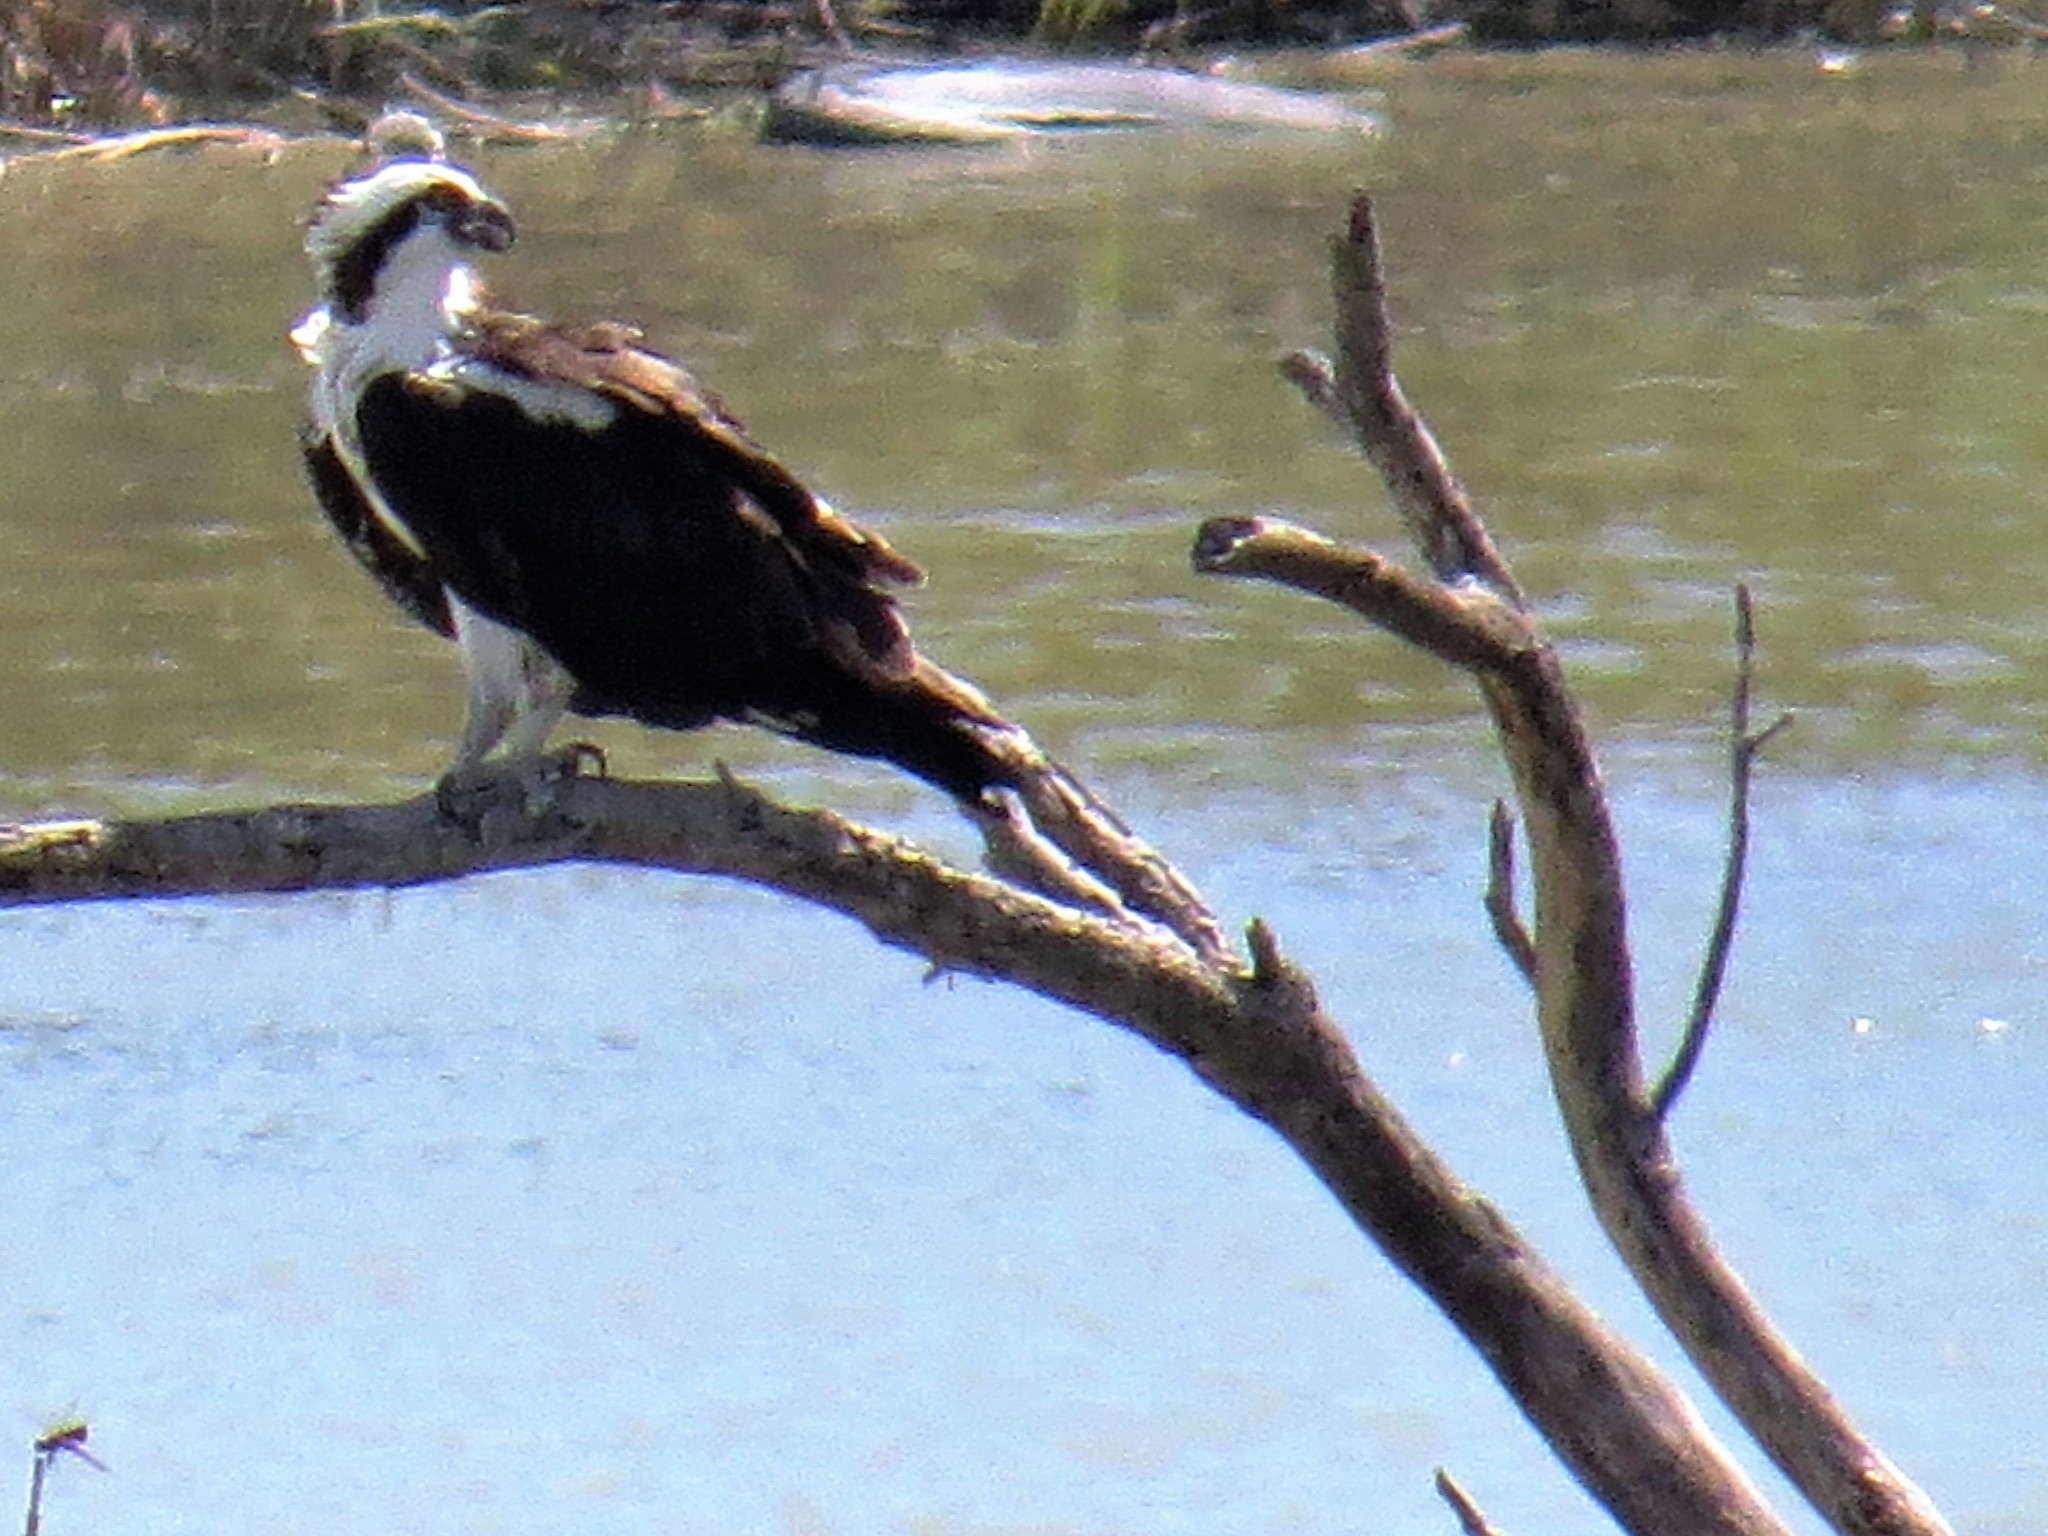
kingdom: Animalia
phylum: Chordata
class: Aves
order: Accipitriformes
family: Pandionidae
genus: Pandion
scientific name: Pandion haliaetus
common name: Osprey
